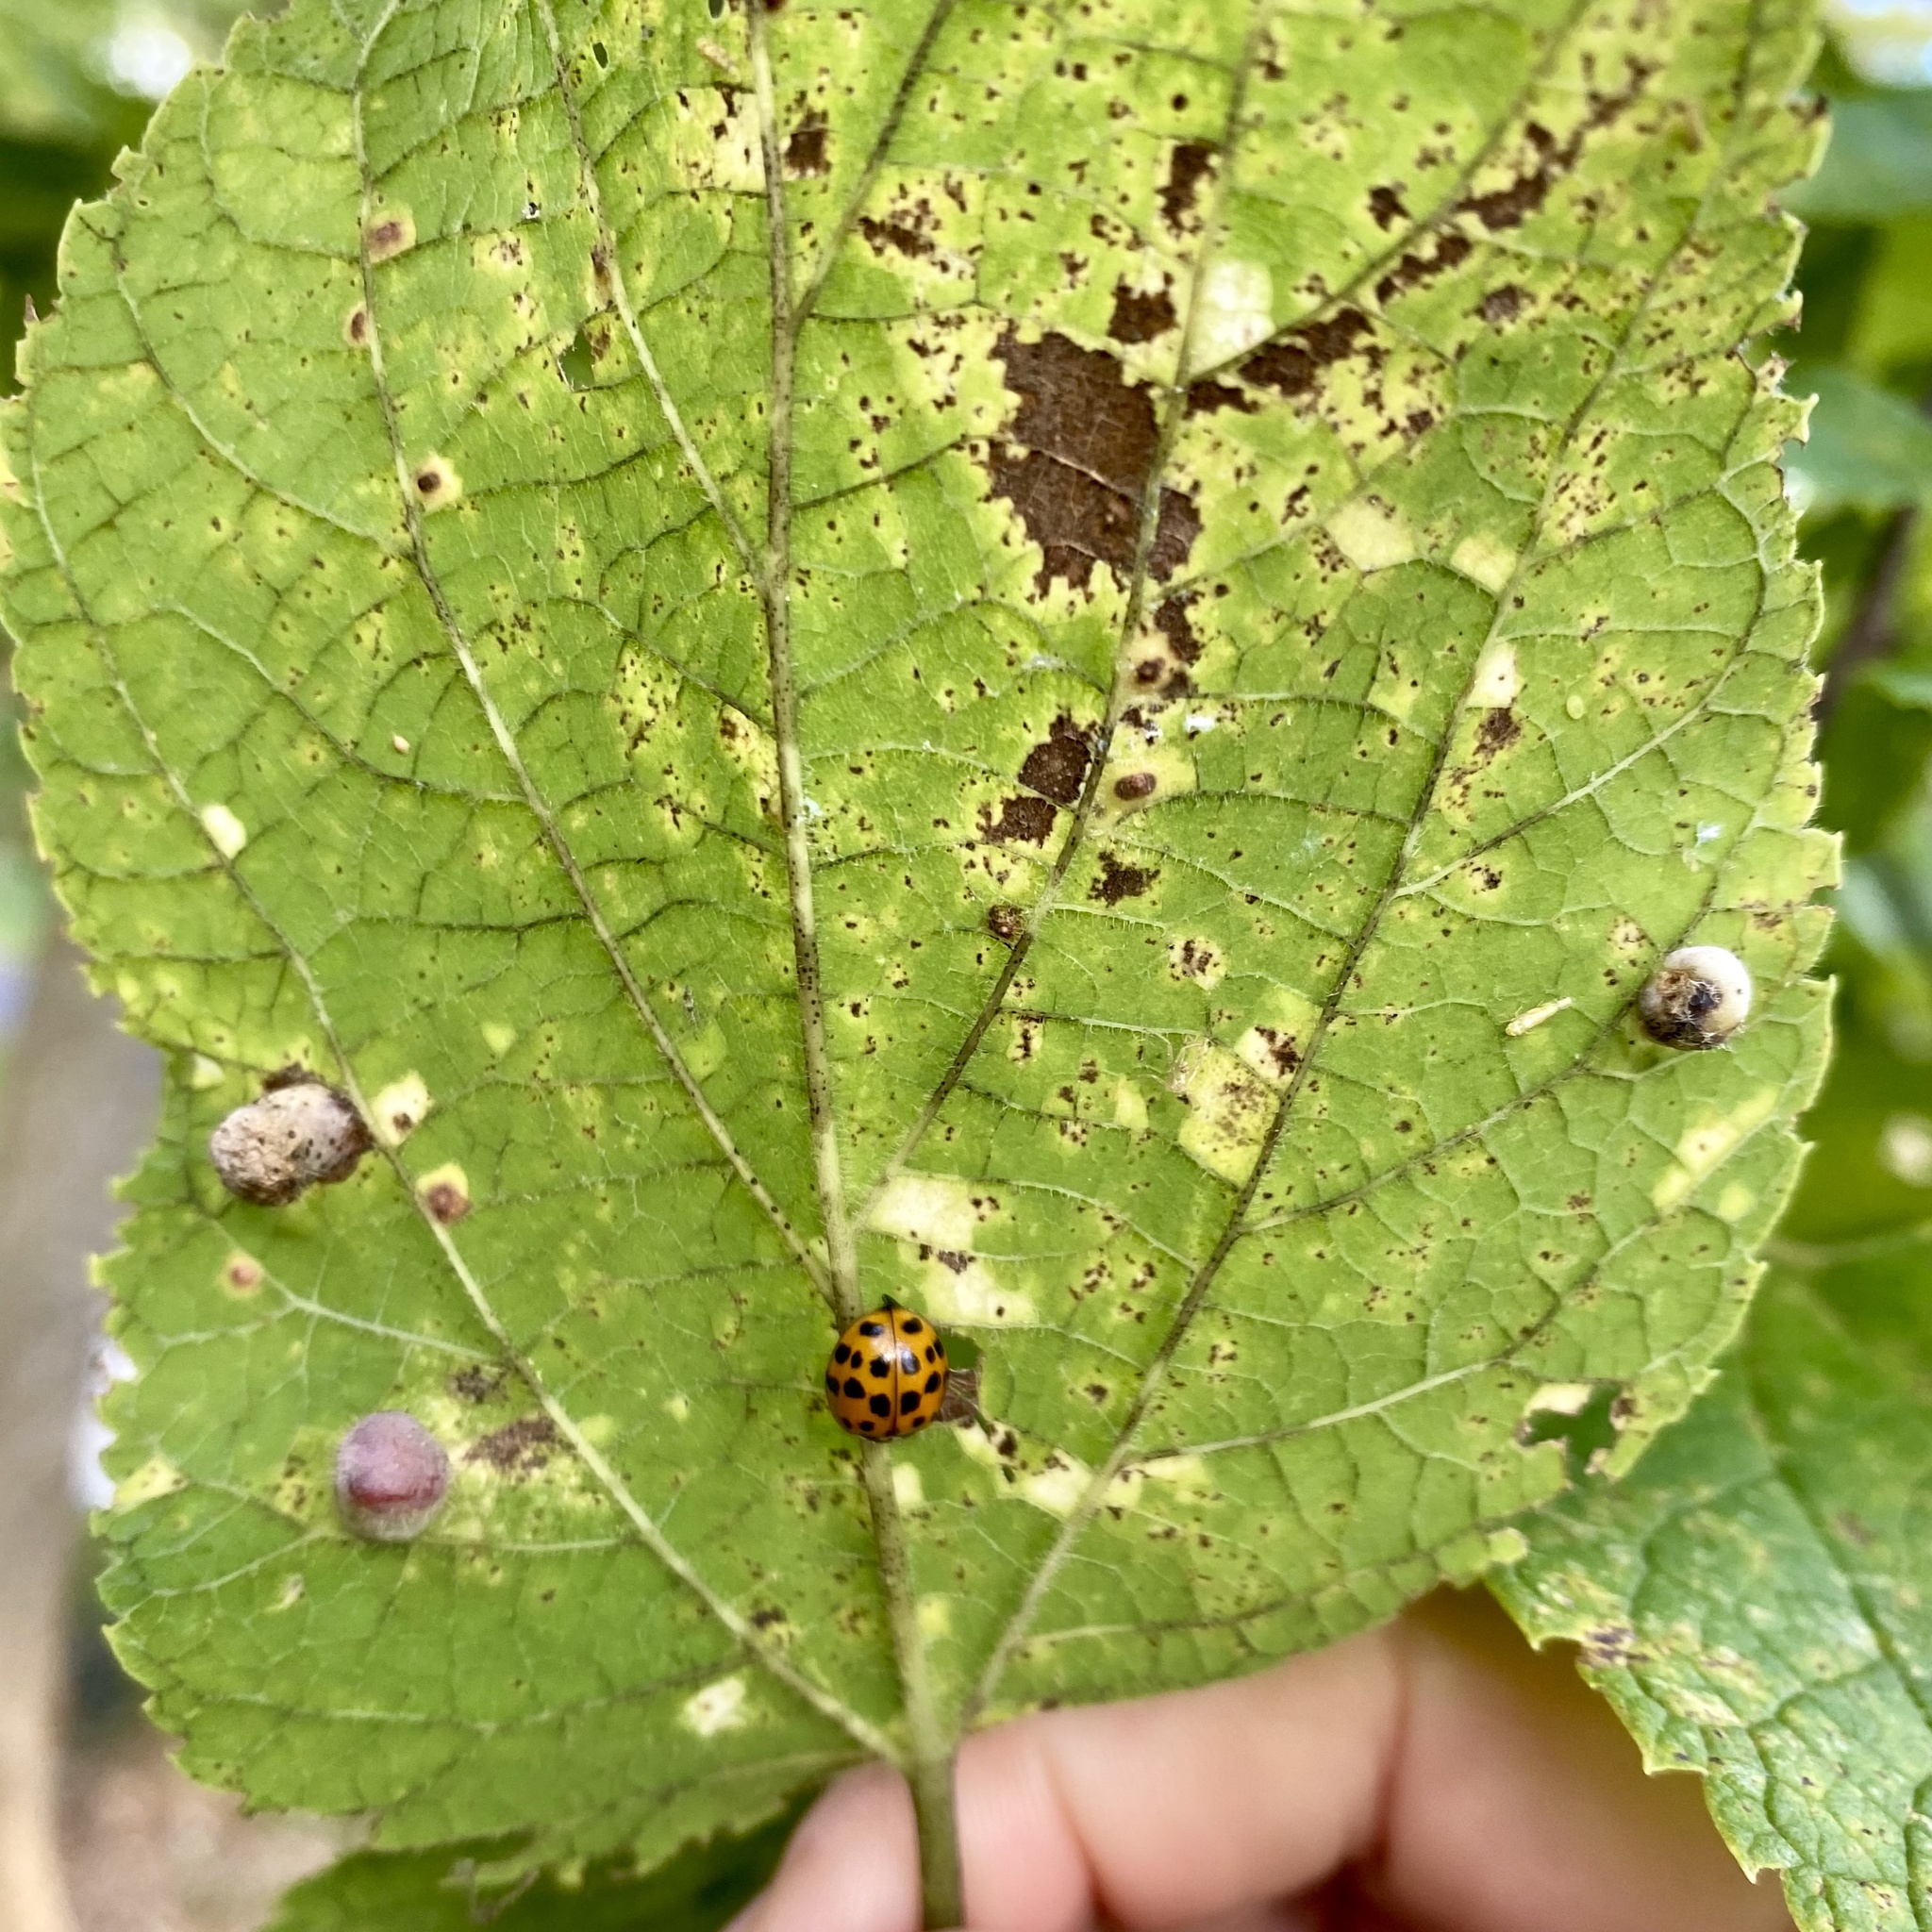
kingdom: Animalia
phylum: Arthropoda
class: Insecta
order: Coleoptera
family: Coccinellidae
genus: Harmonia
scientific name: Harmonia axyridis
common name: Harlequin ladybird
